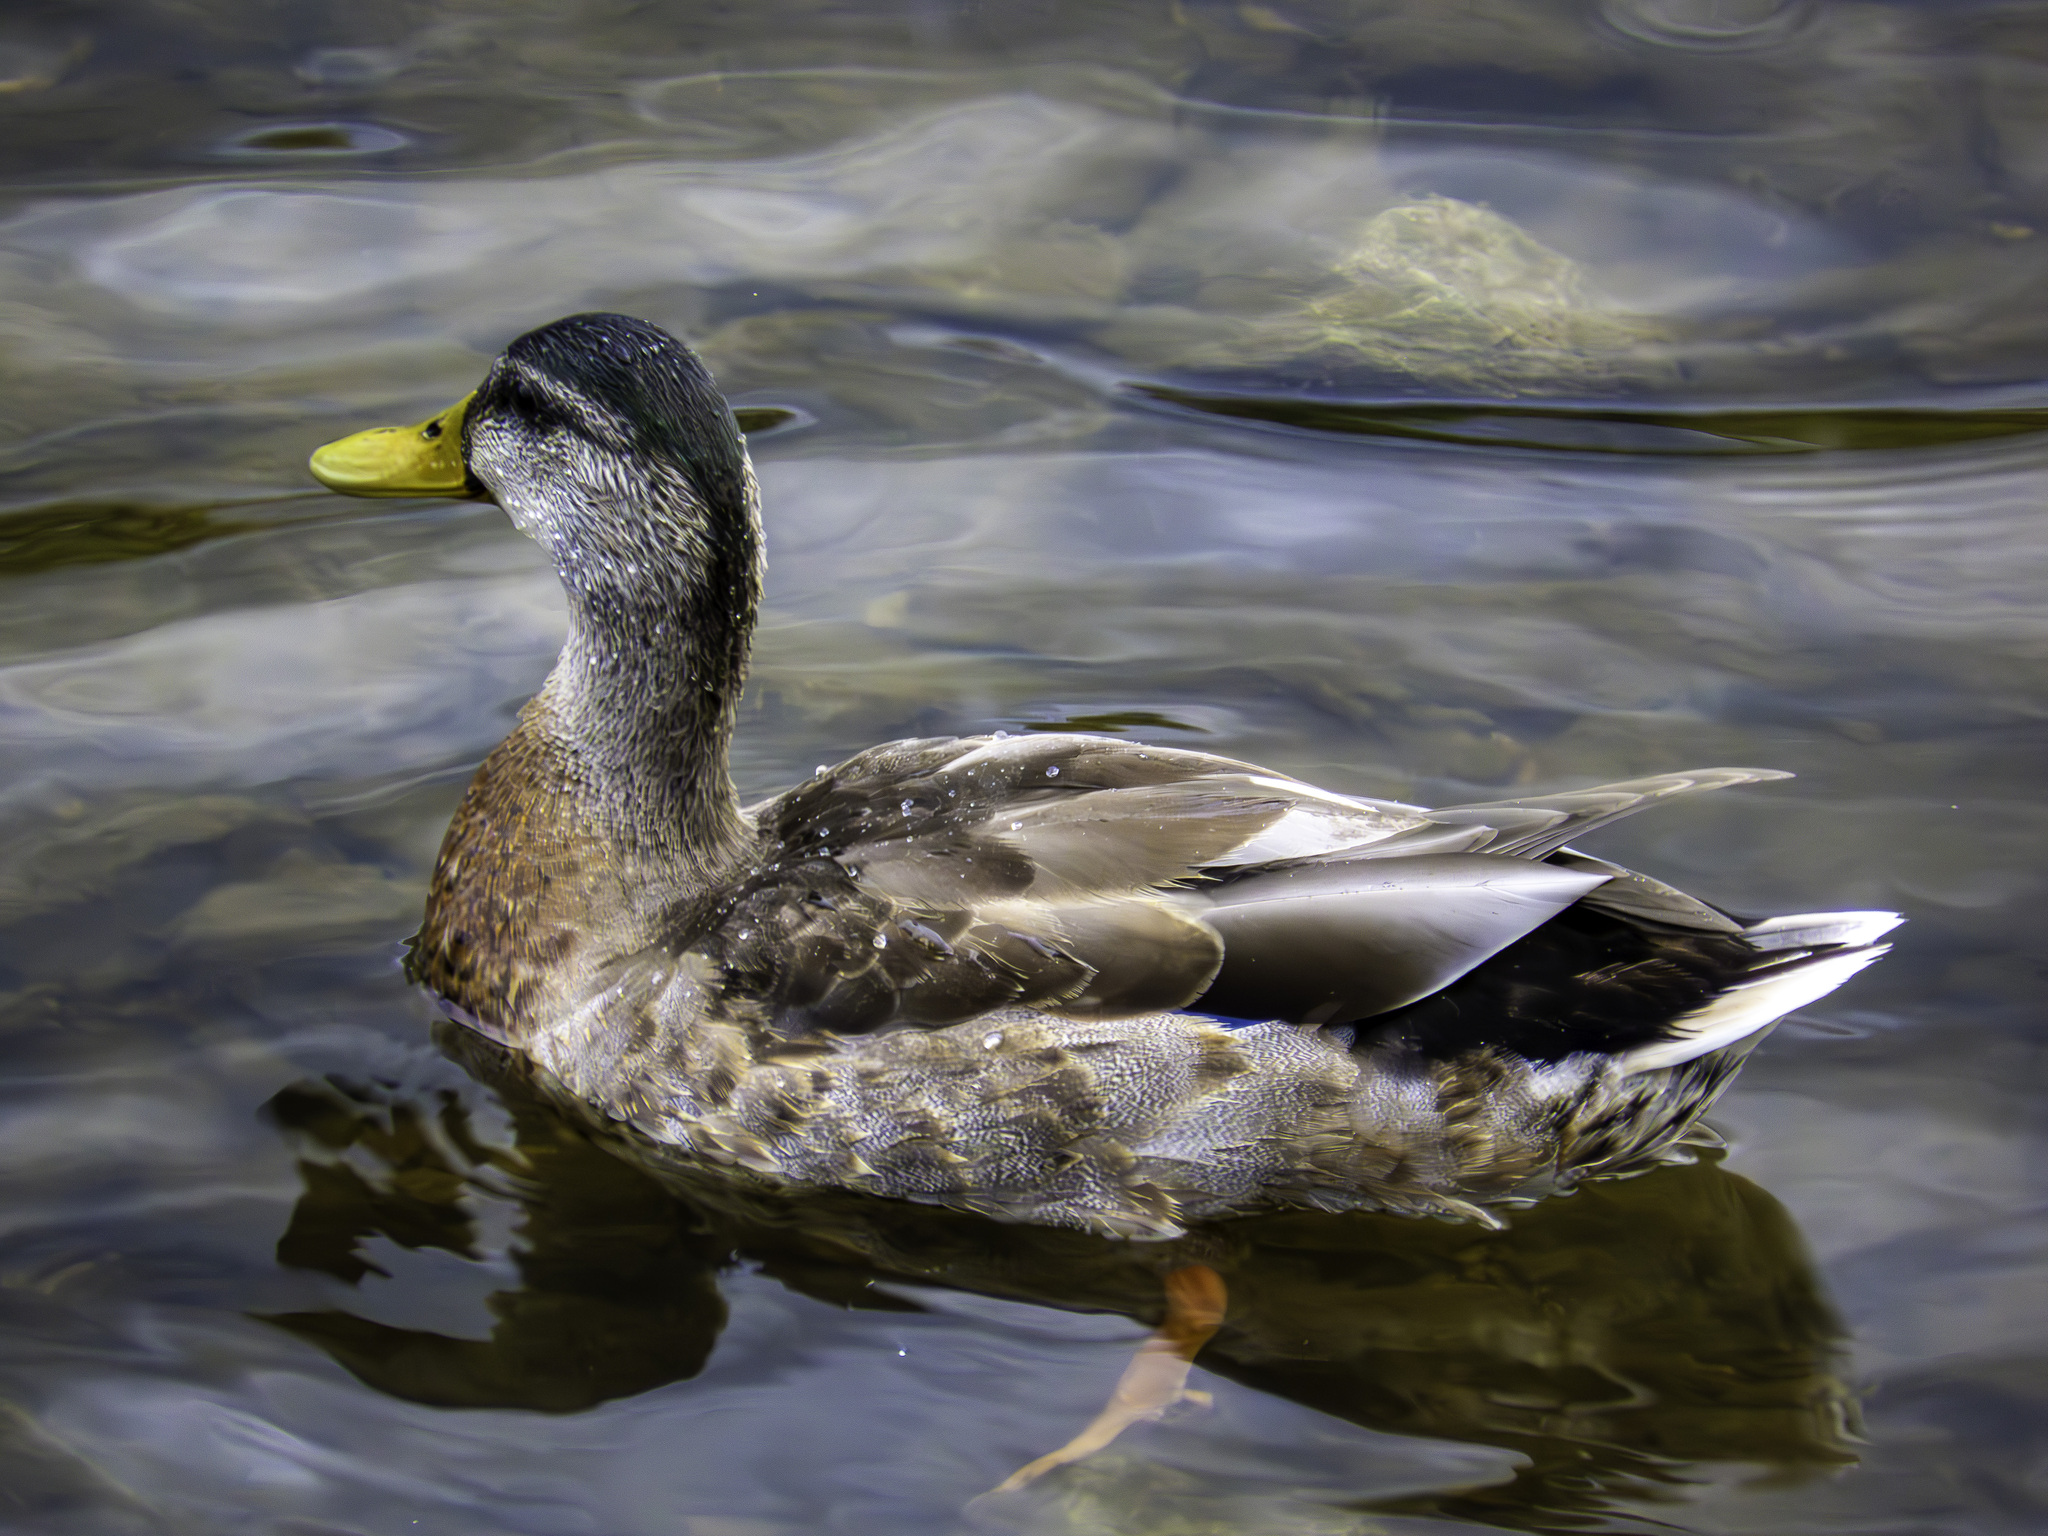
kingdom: Animalia
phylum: Chordata
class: Aves
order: Anseriformes
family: Anatidae
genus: Anas
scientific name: Anas platyrhynchos
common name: Mallard
